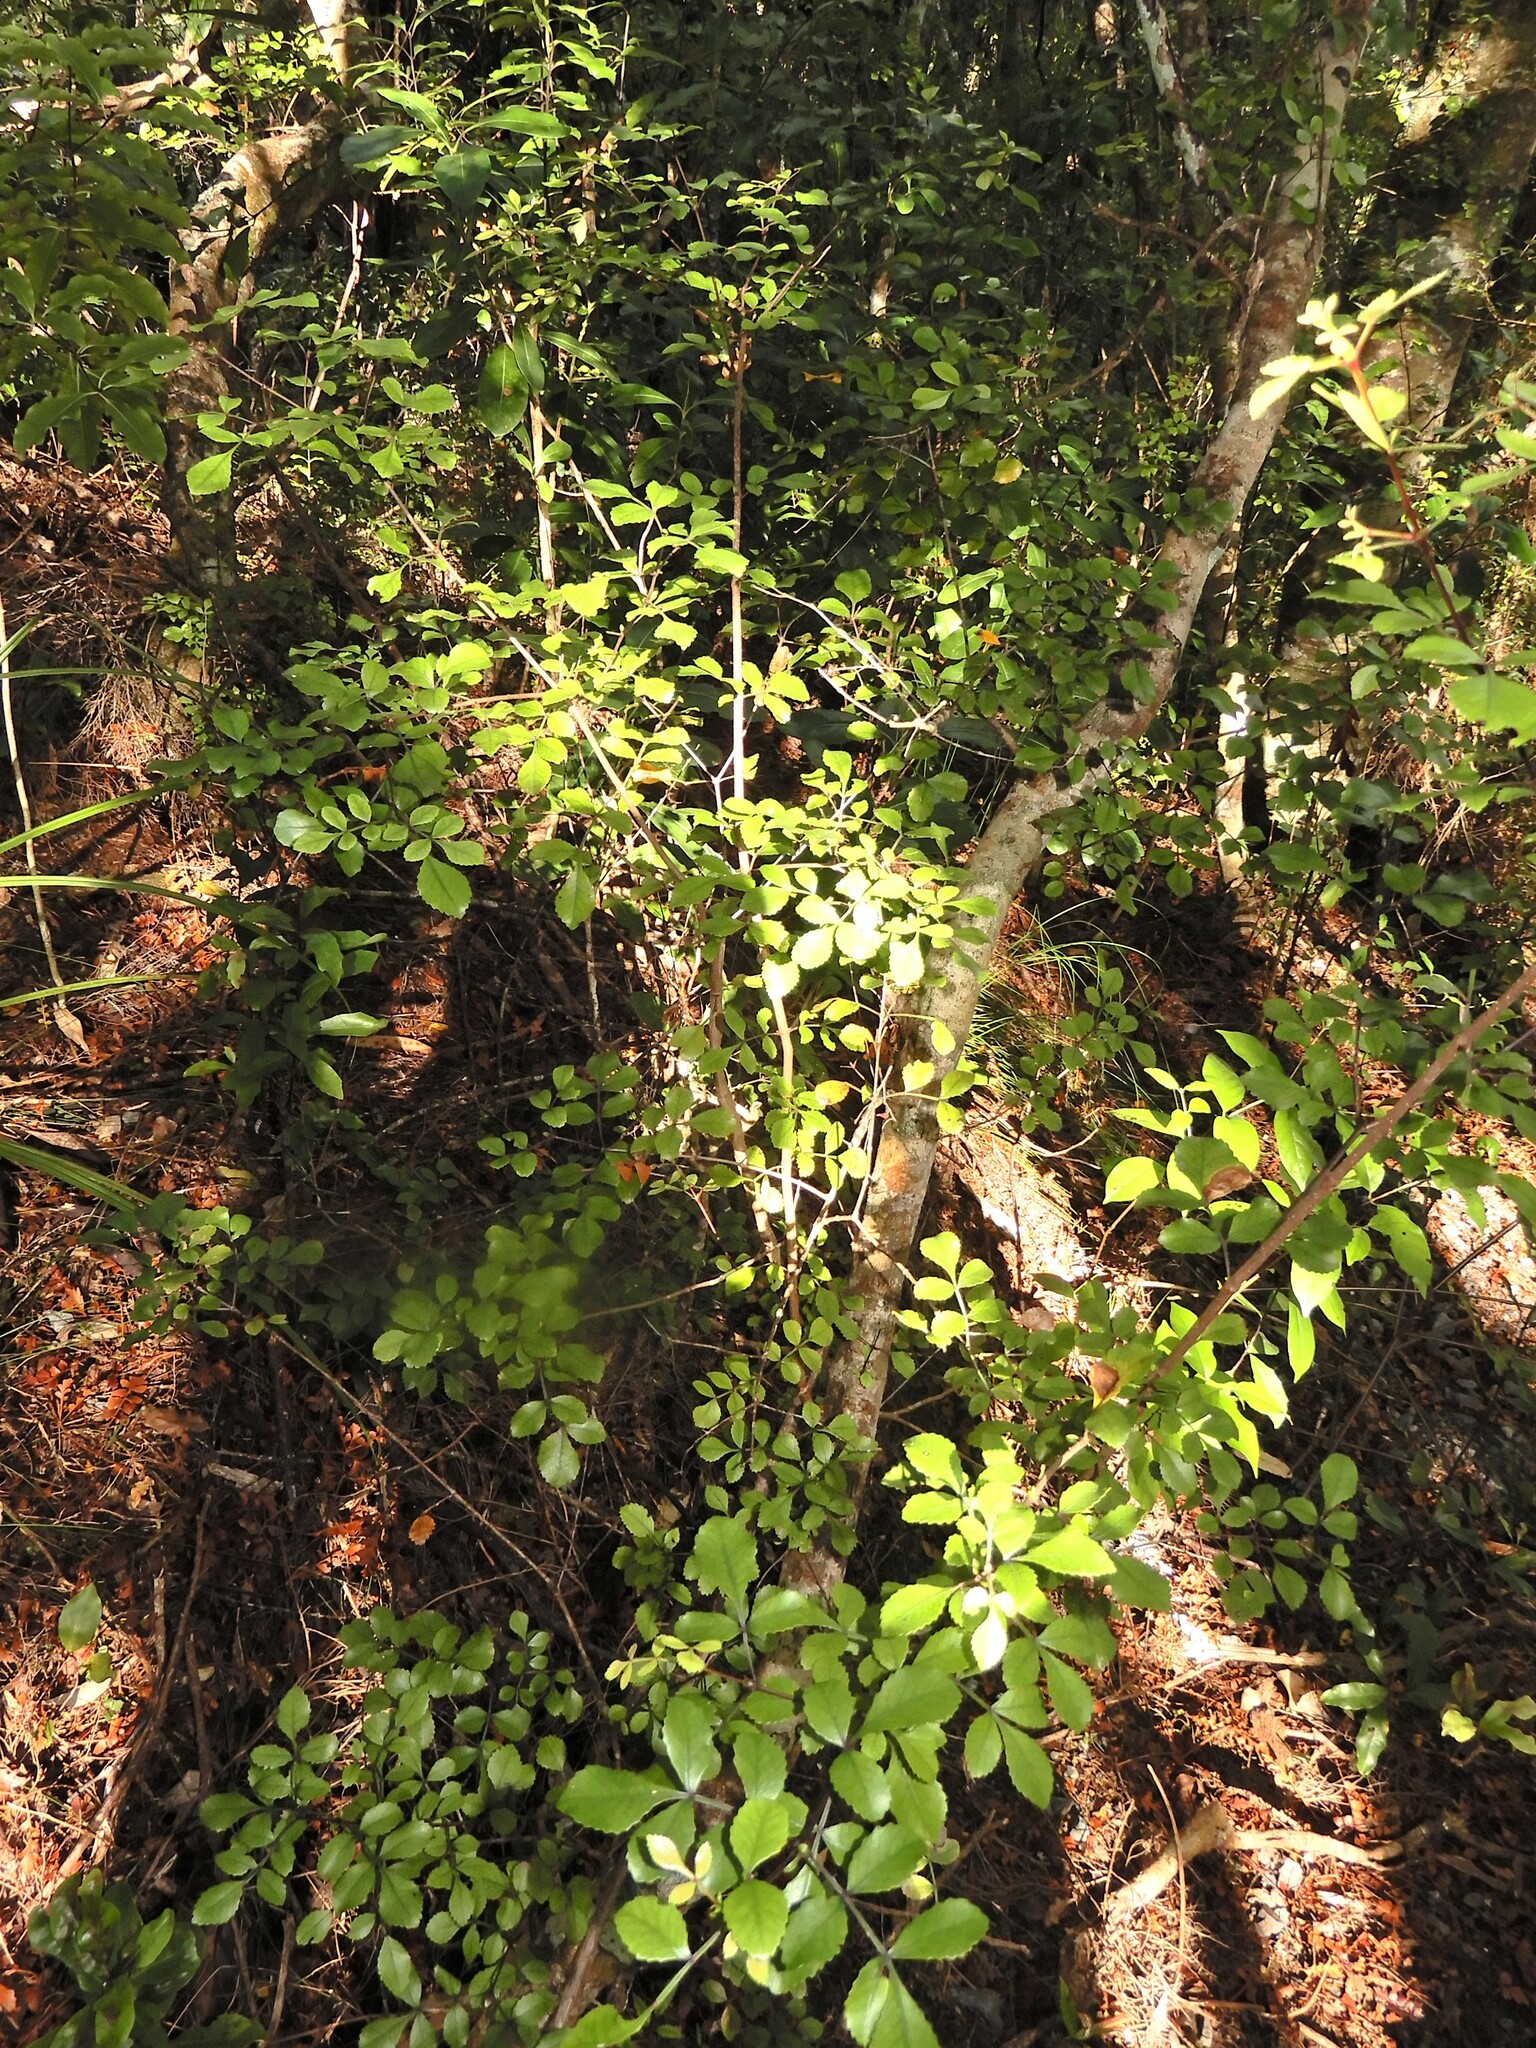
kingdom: Plantae
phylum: Tracheophyta
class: Magnoliopsida
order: Oxalidales
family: Cunoniaceae
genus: Pterophylla
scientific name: Pterophylla sylvicola
